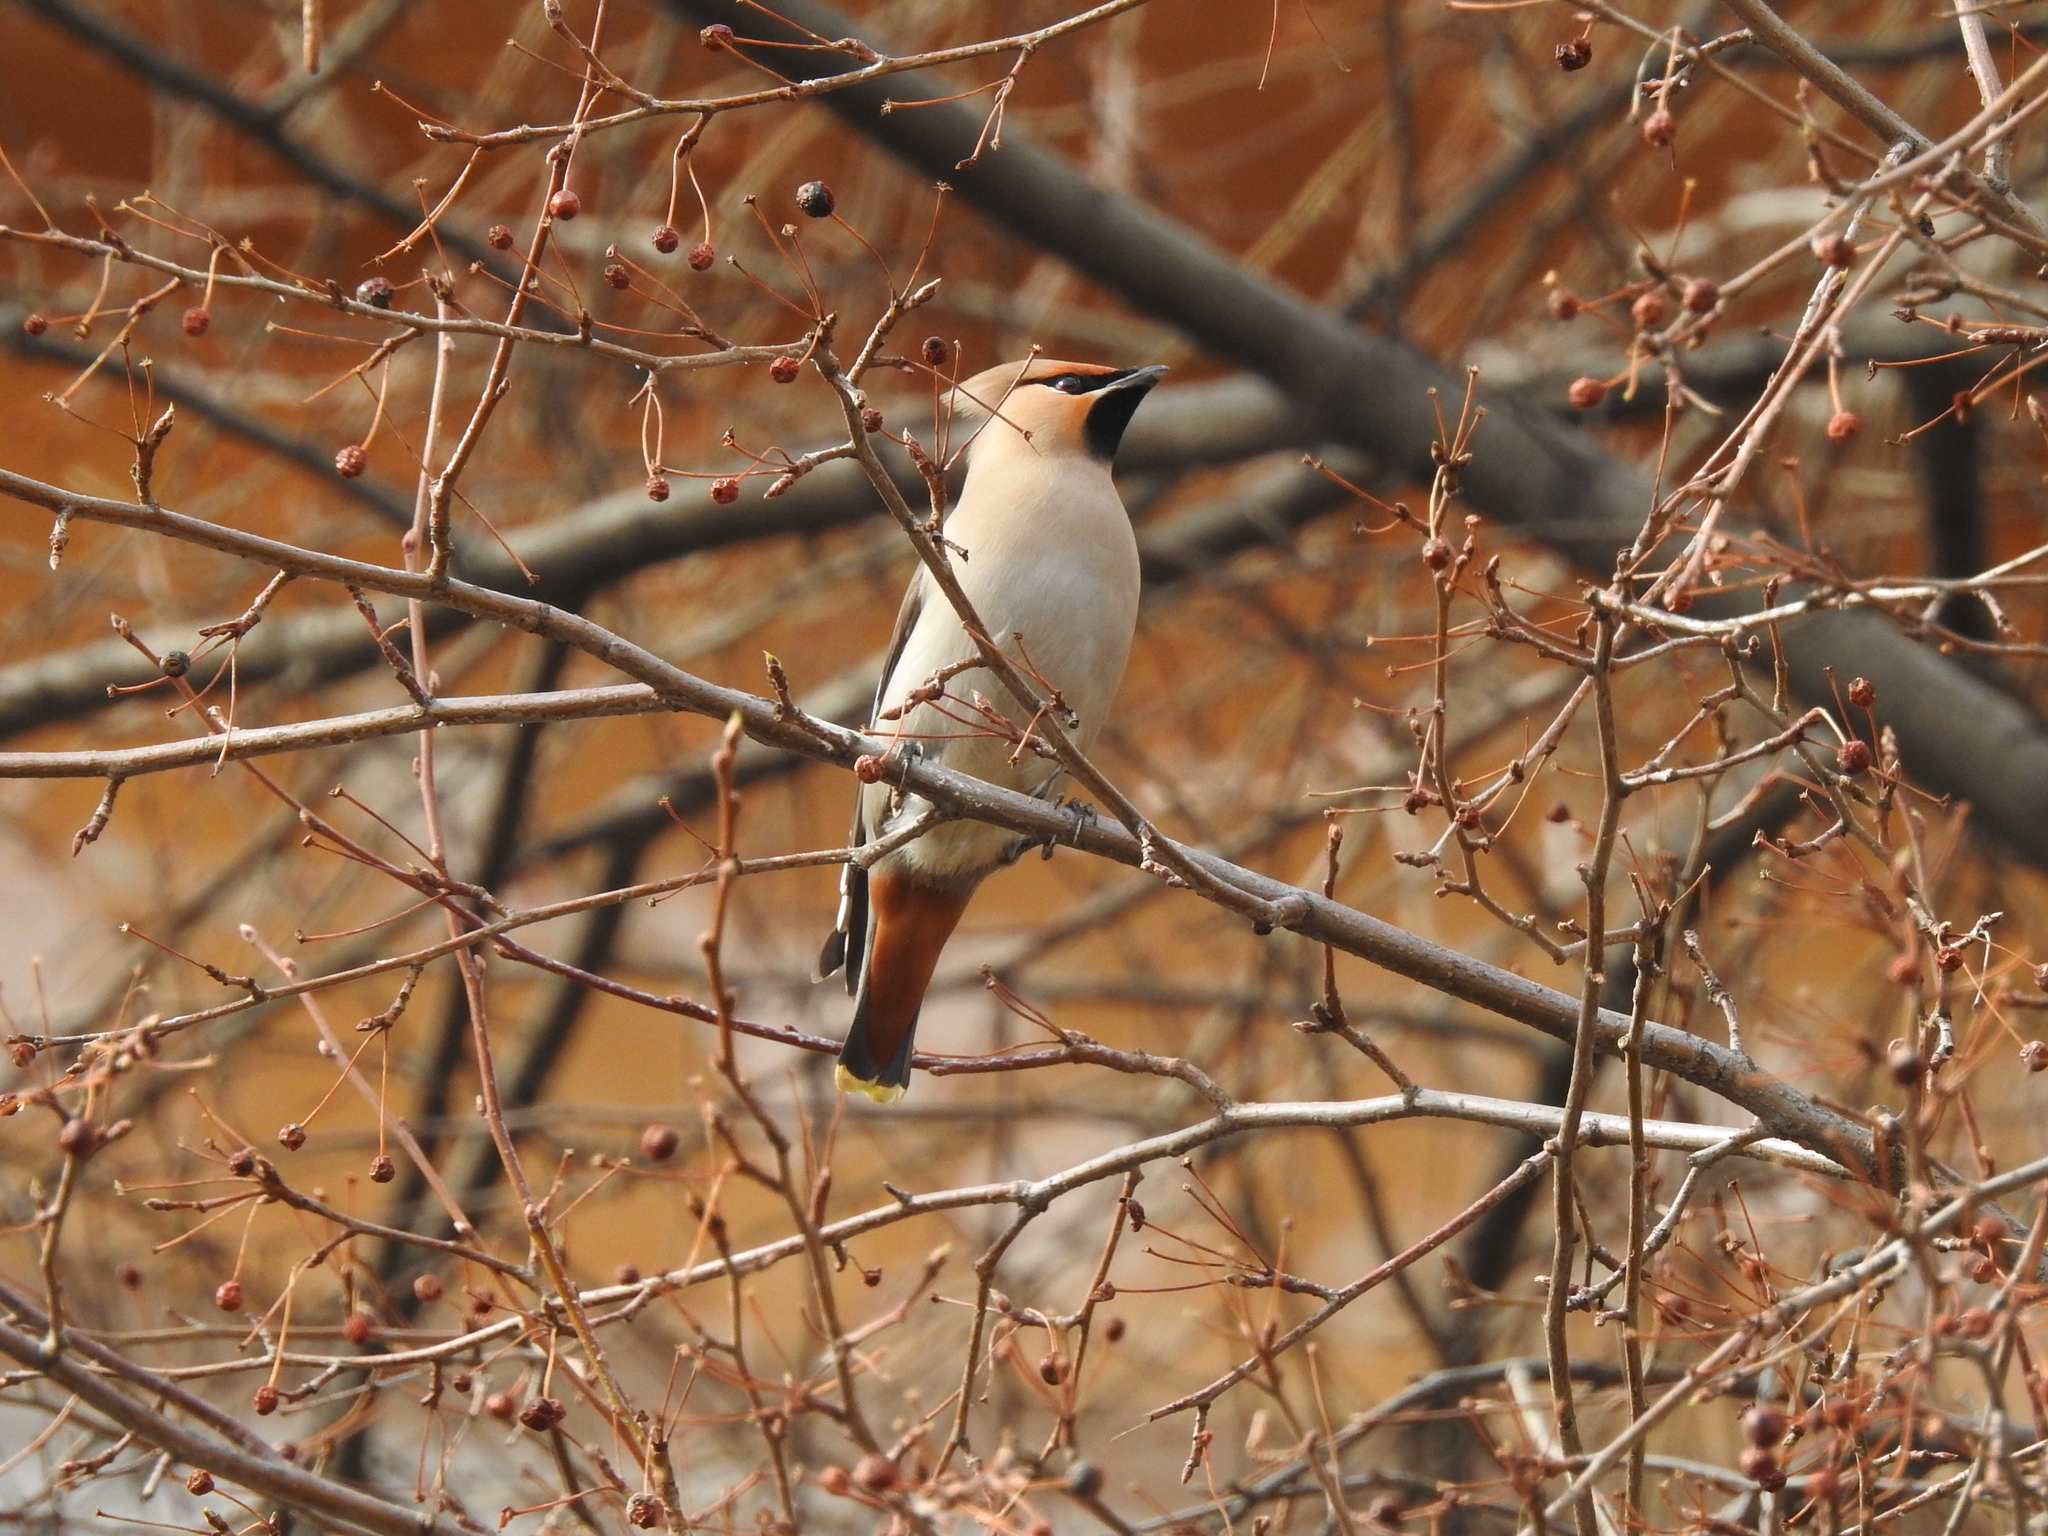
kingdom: Animalia
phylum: Chordata
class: Aves
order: Passeriformes
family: Bombycillidae
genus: Bombycilla
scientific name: Bombycilla garrulus
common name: Bohemian waxwing
